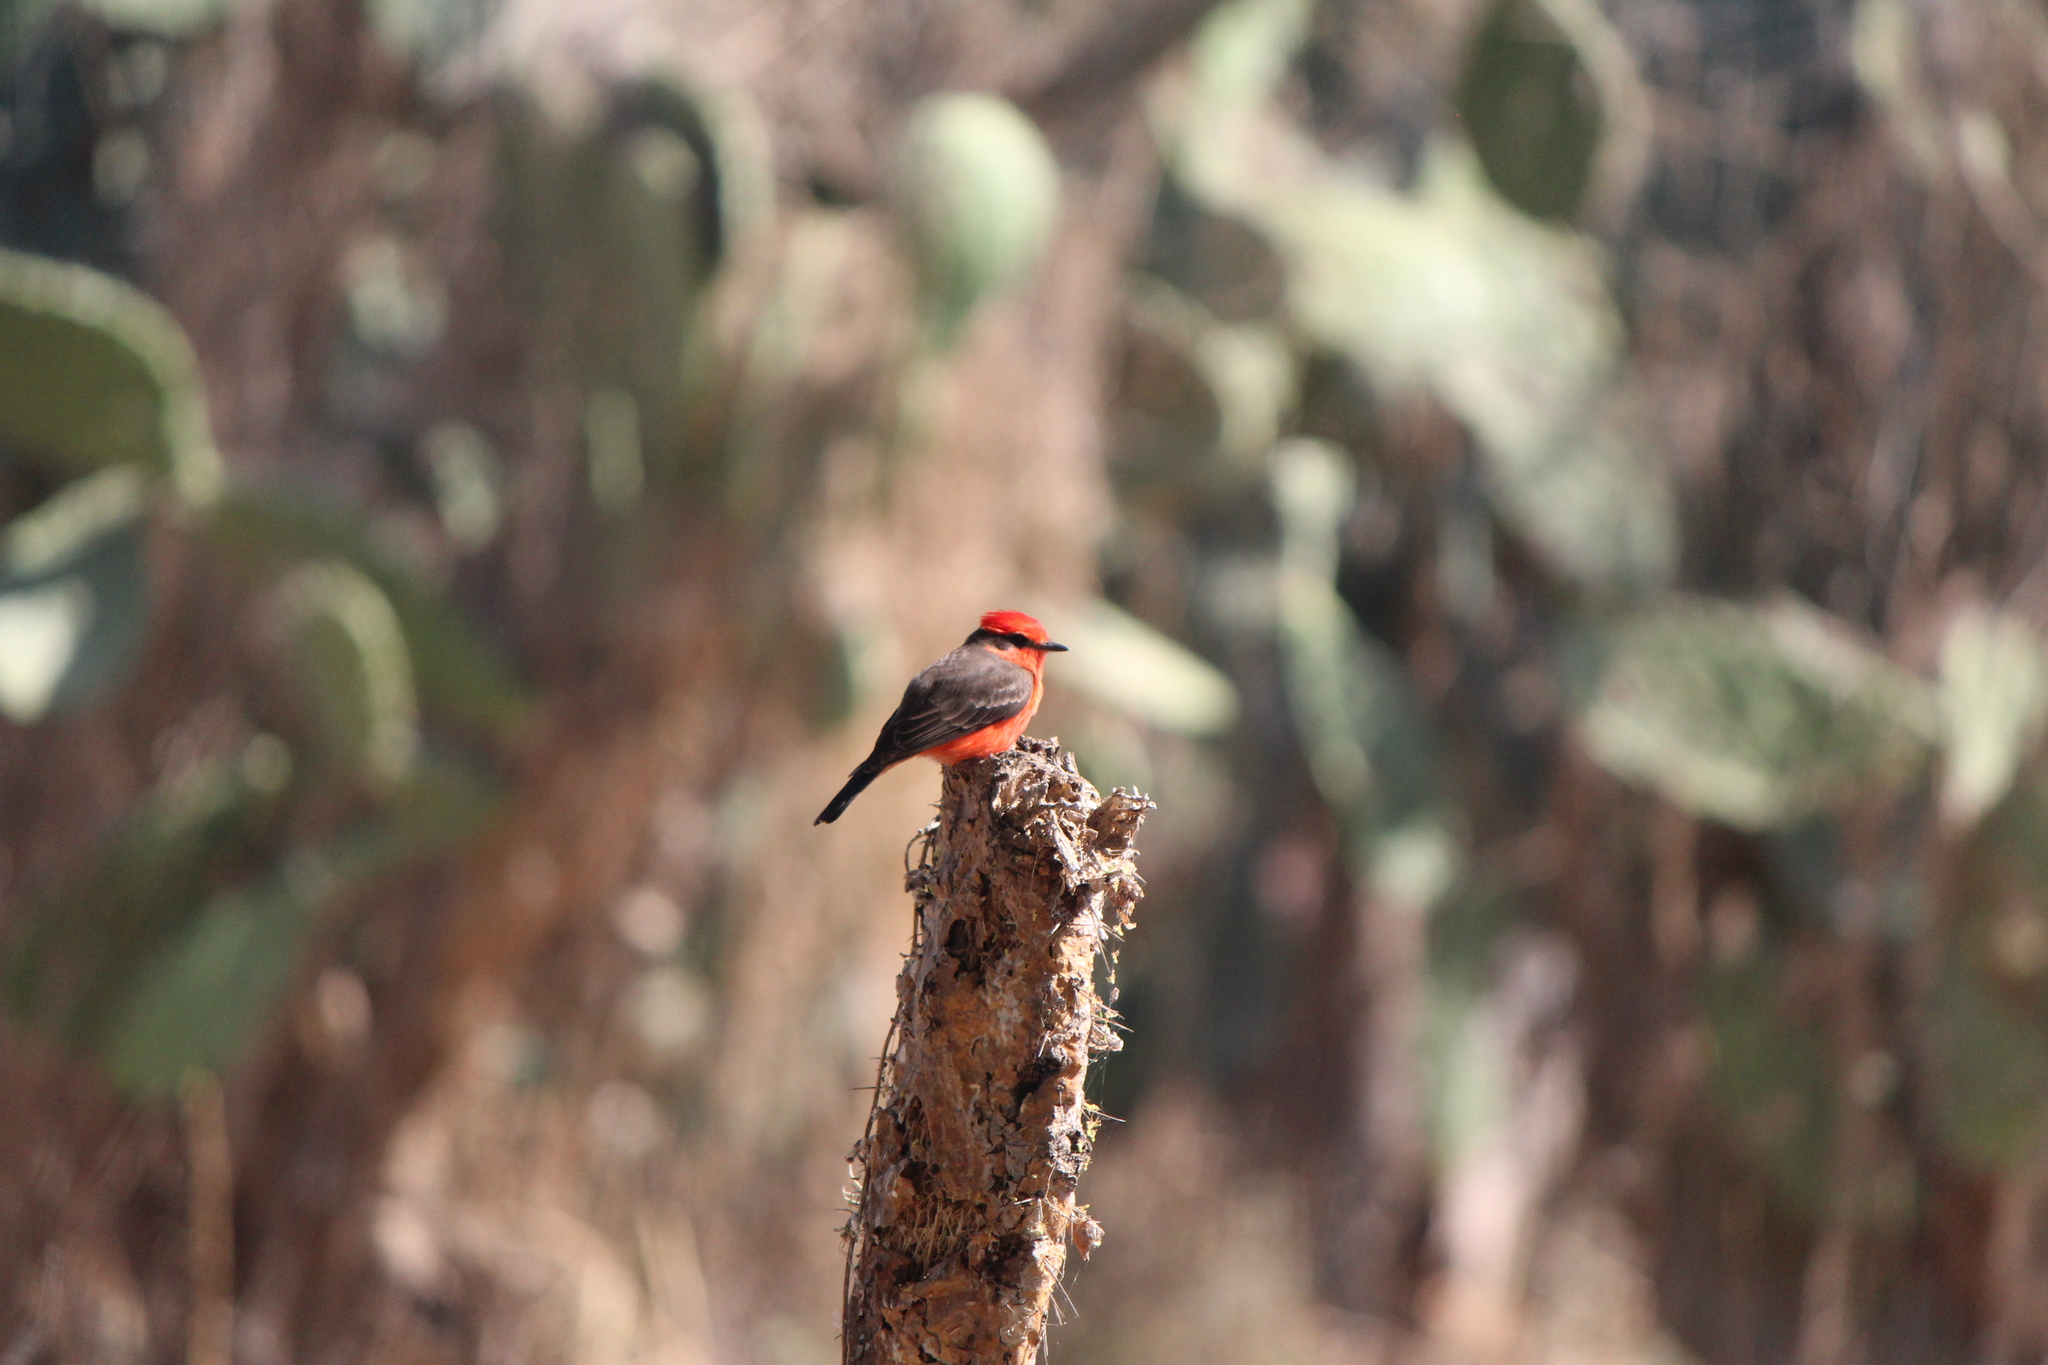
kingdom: Animalia
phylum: Chordata
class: Aves
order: Passeriformes
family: Tyrannidae
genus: Pyrocephalus
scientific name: Pyrocephalus rubinus
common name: Vermilion flycatcher
